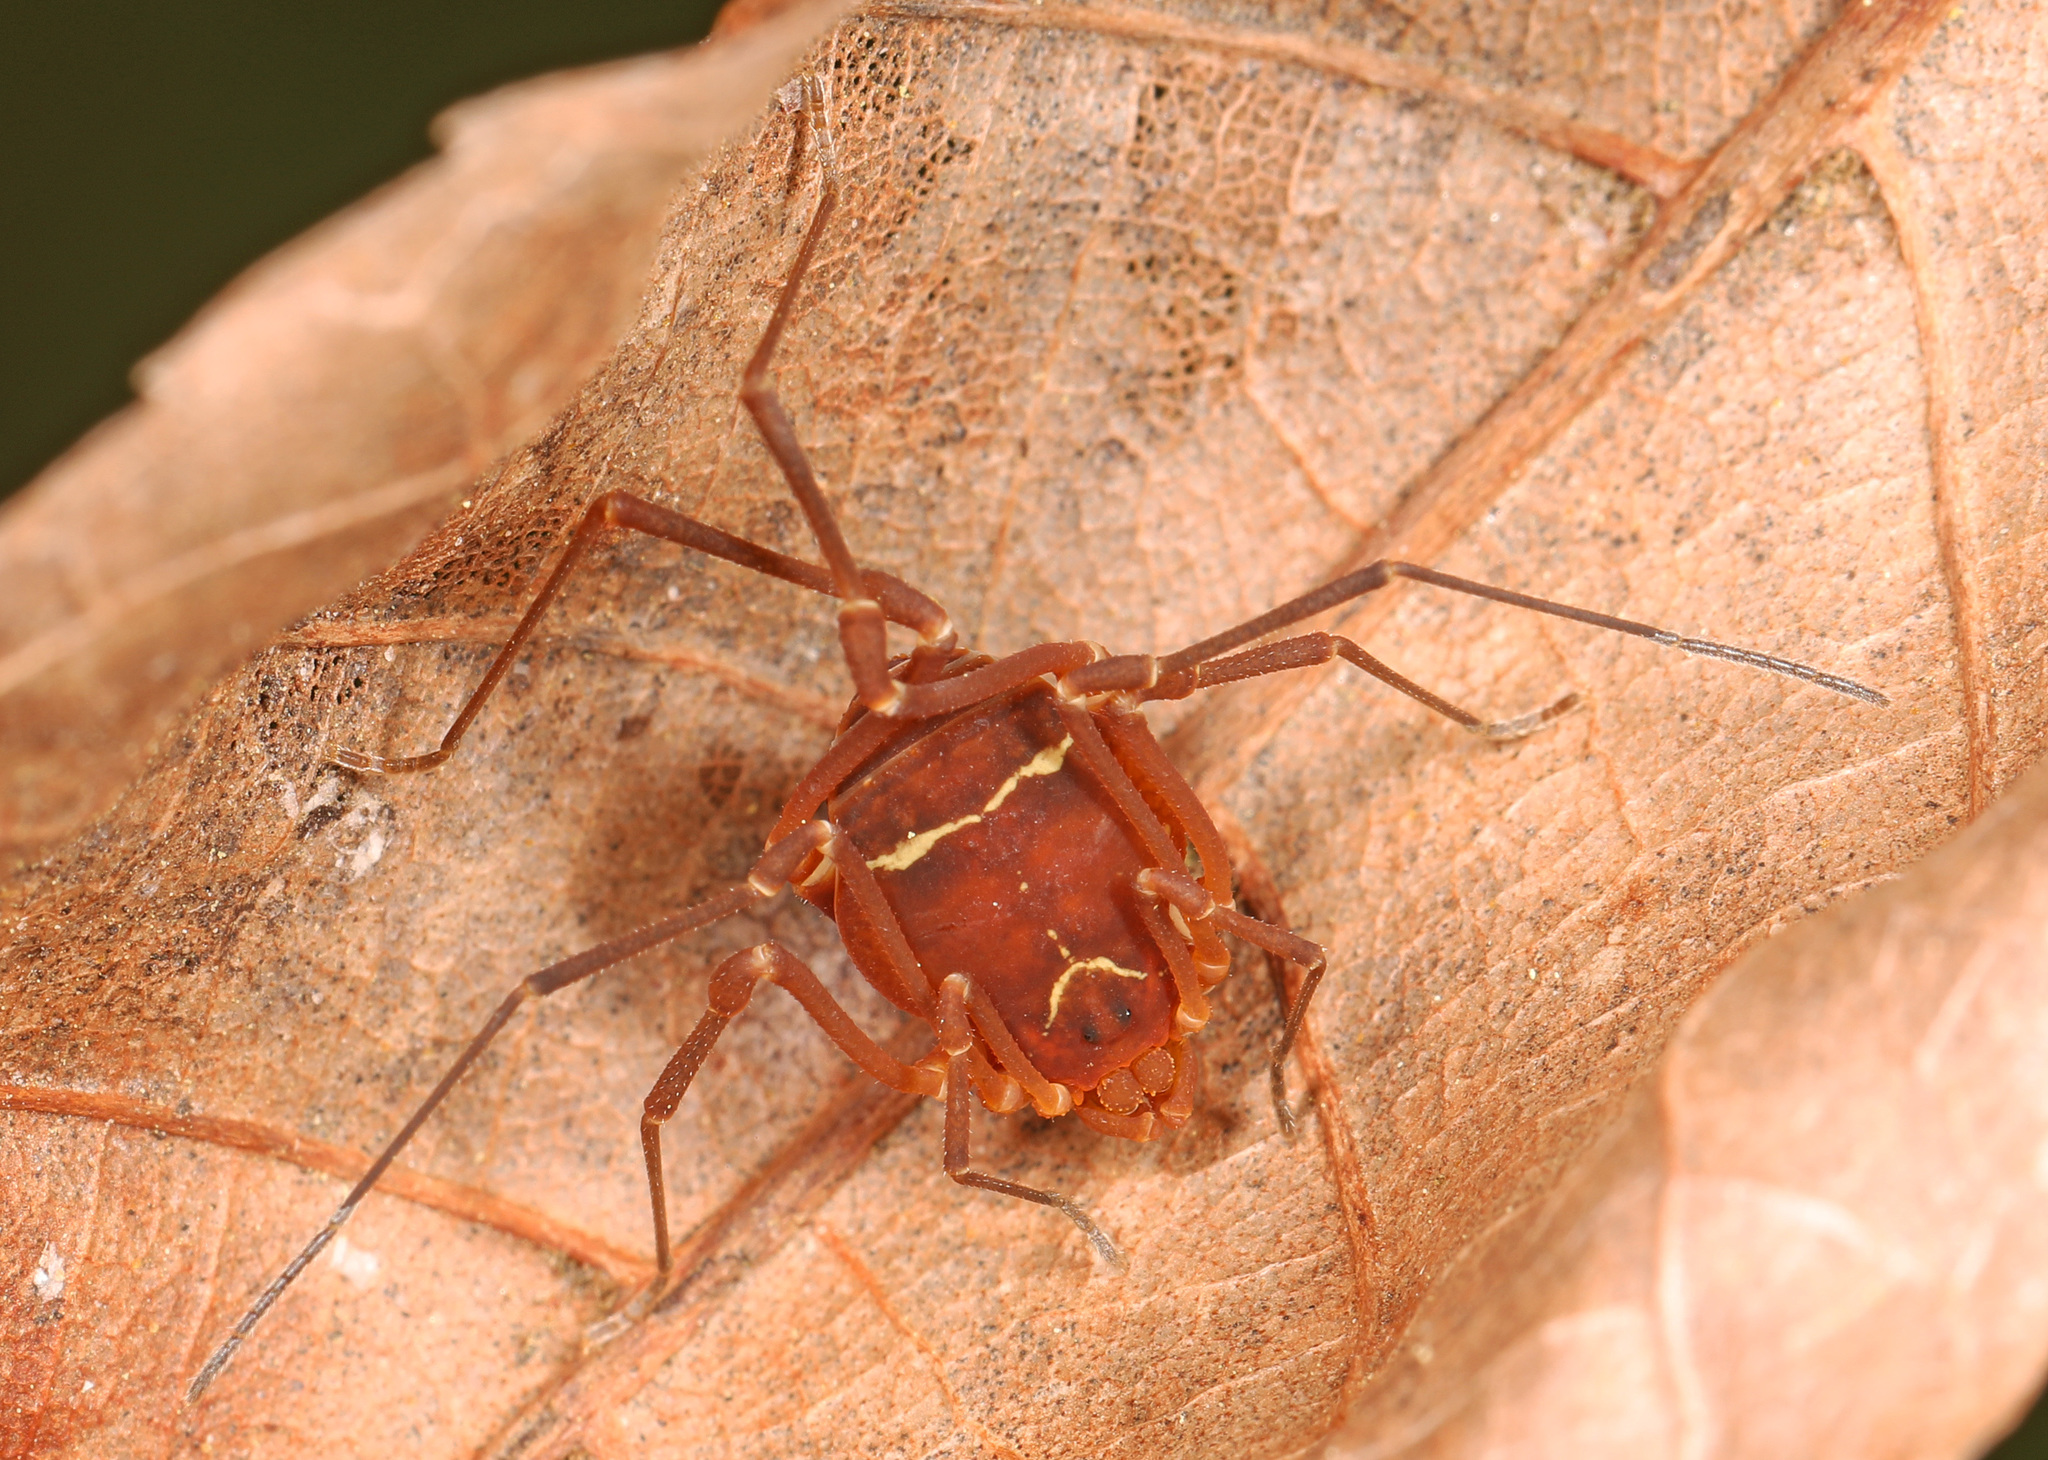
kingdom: Animalia
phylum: Arthropoda
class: Arachnida
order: Opiliones
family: Cosmetidae
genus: Libitioides
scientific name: Libitioides sayi
